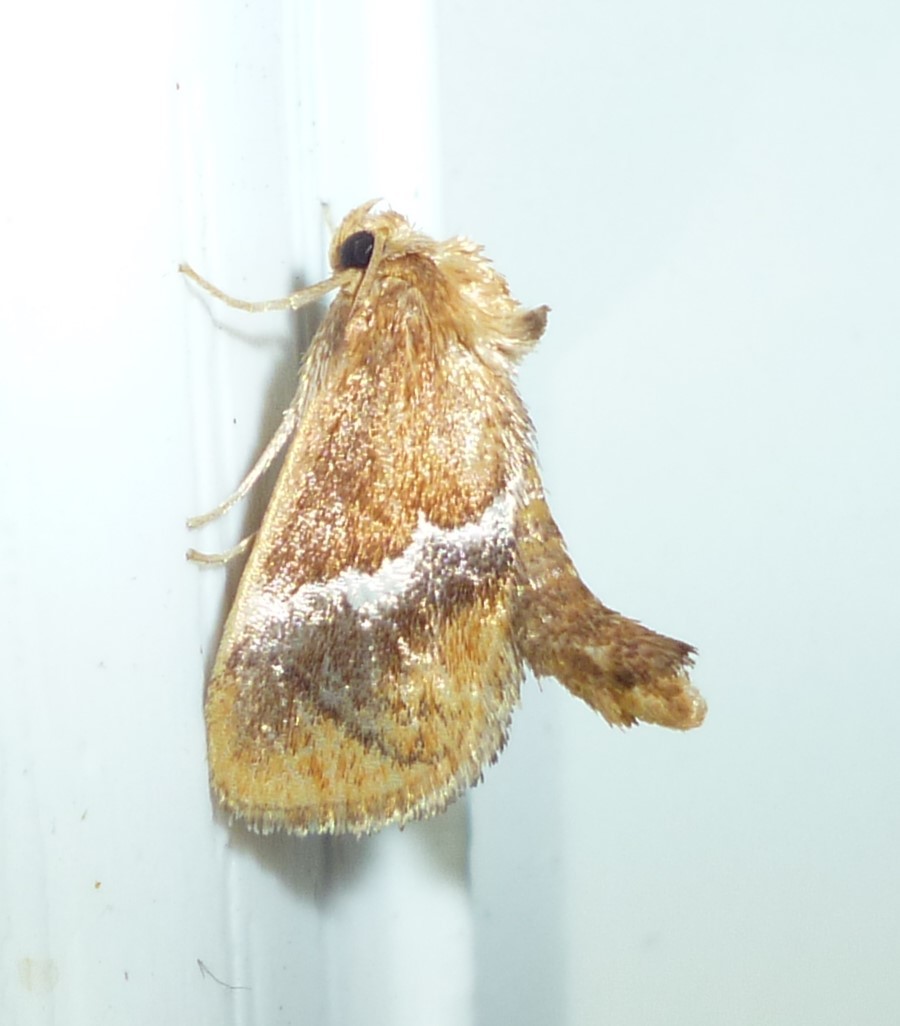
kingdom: Animalia
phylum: Arthropoda
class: Insecta
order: Lepidoptera
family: Limacodidae
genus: Lithacodes
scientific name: Lithacodes fasciola
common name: Yellow-shouldered slug moth
